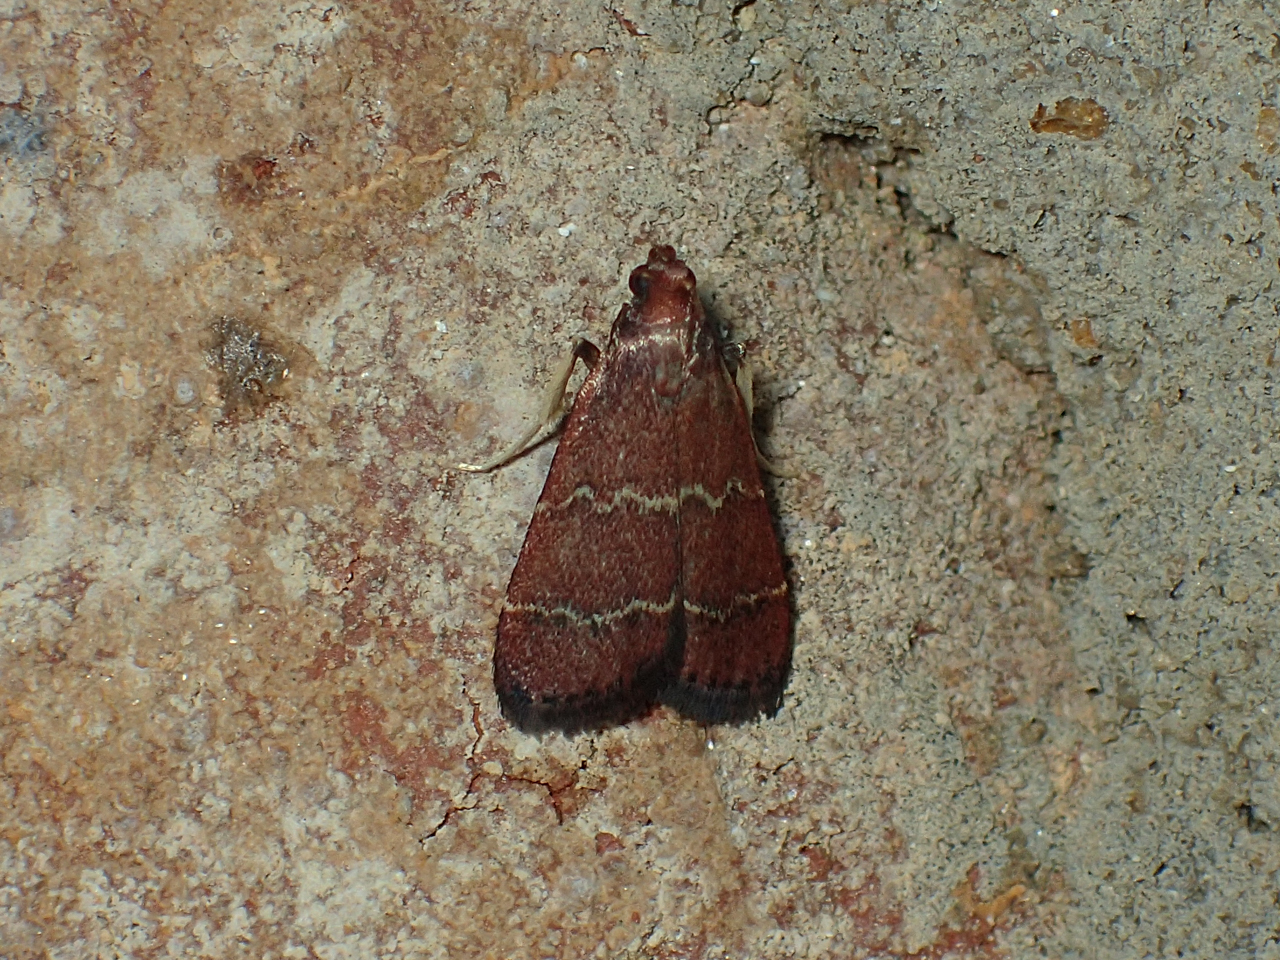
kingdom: Animalia
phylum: Arthropoda
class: Insecta
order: Lepidoptera
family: Pyralidae
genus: Arta
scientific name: Arta
